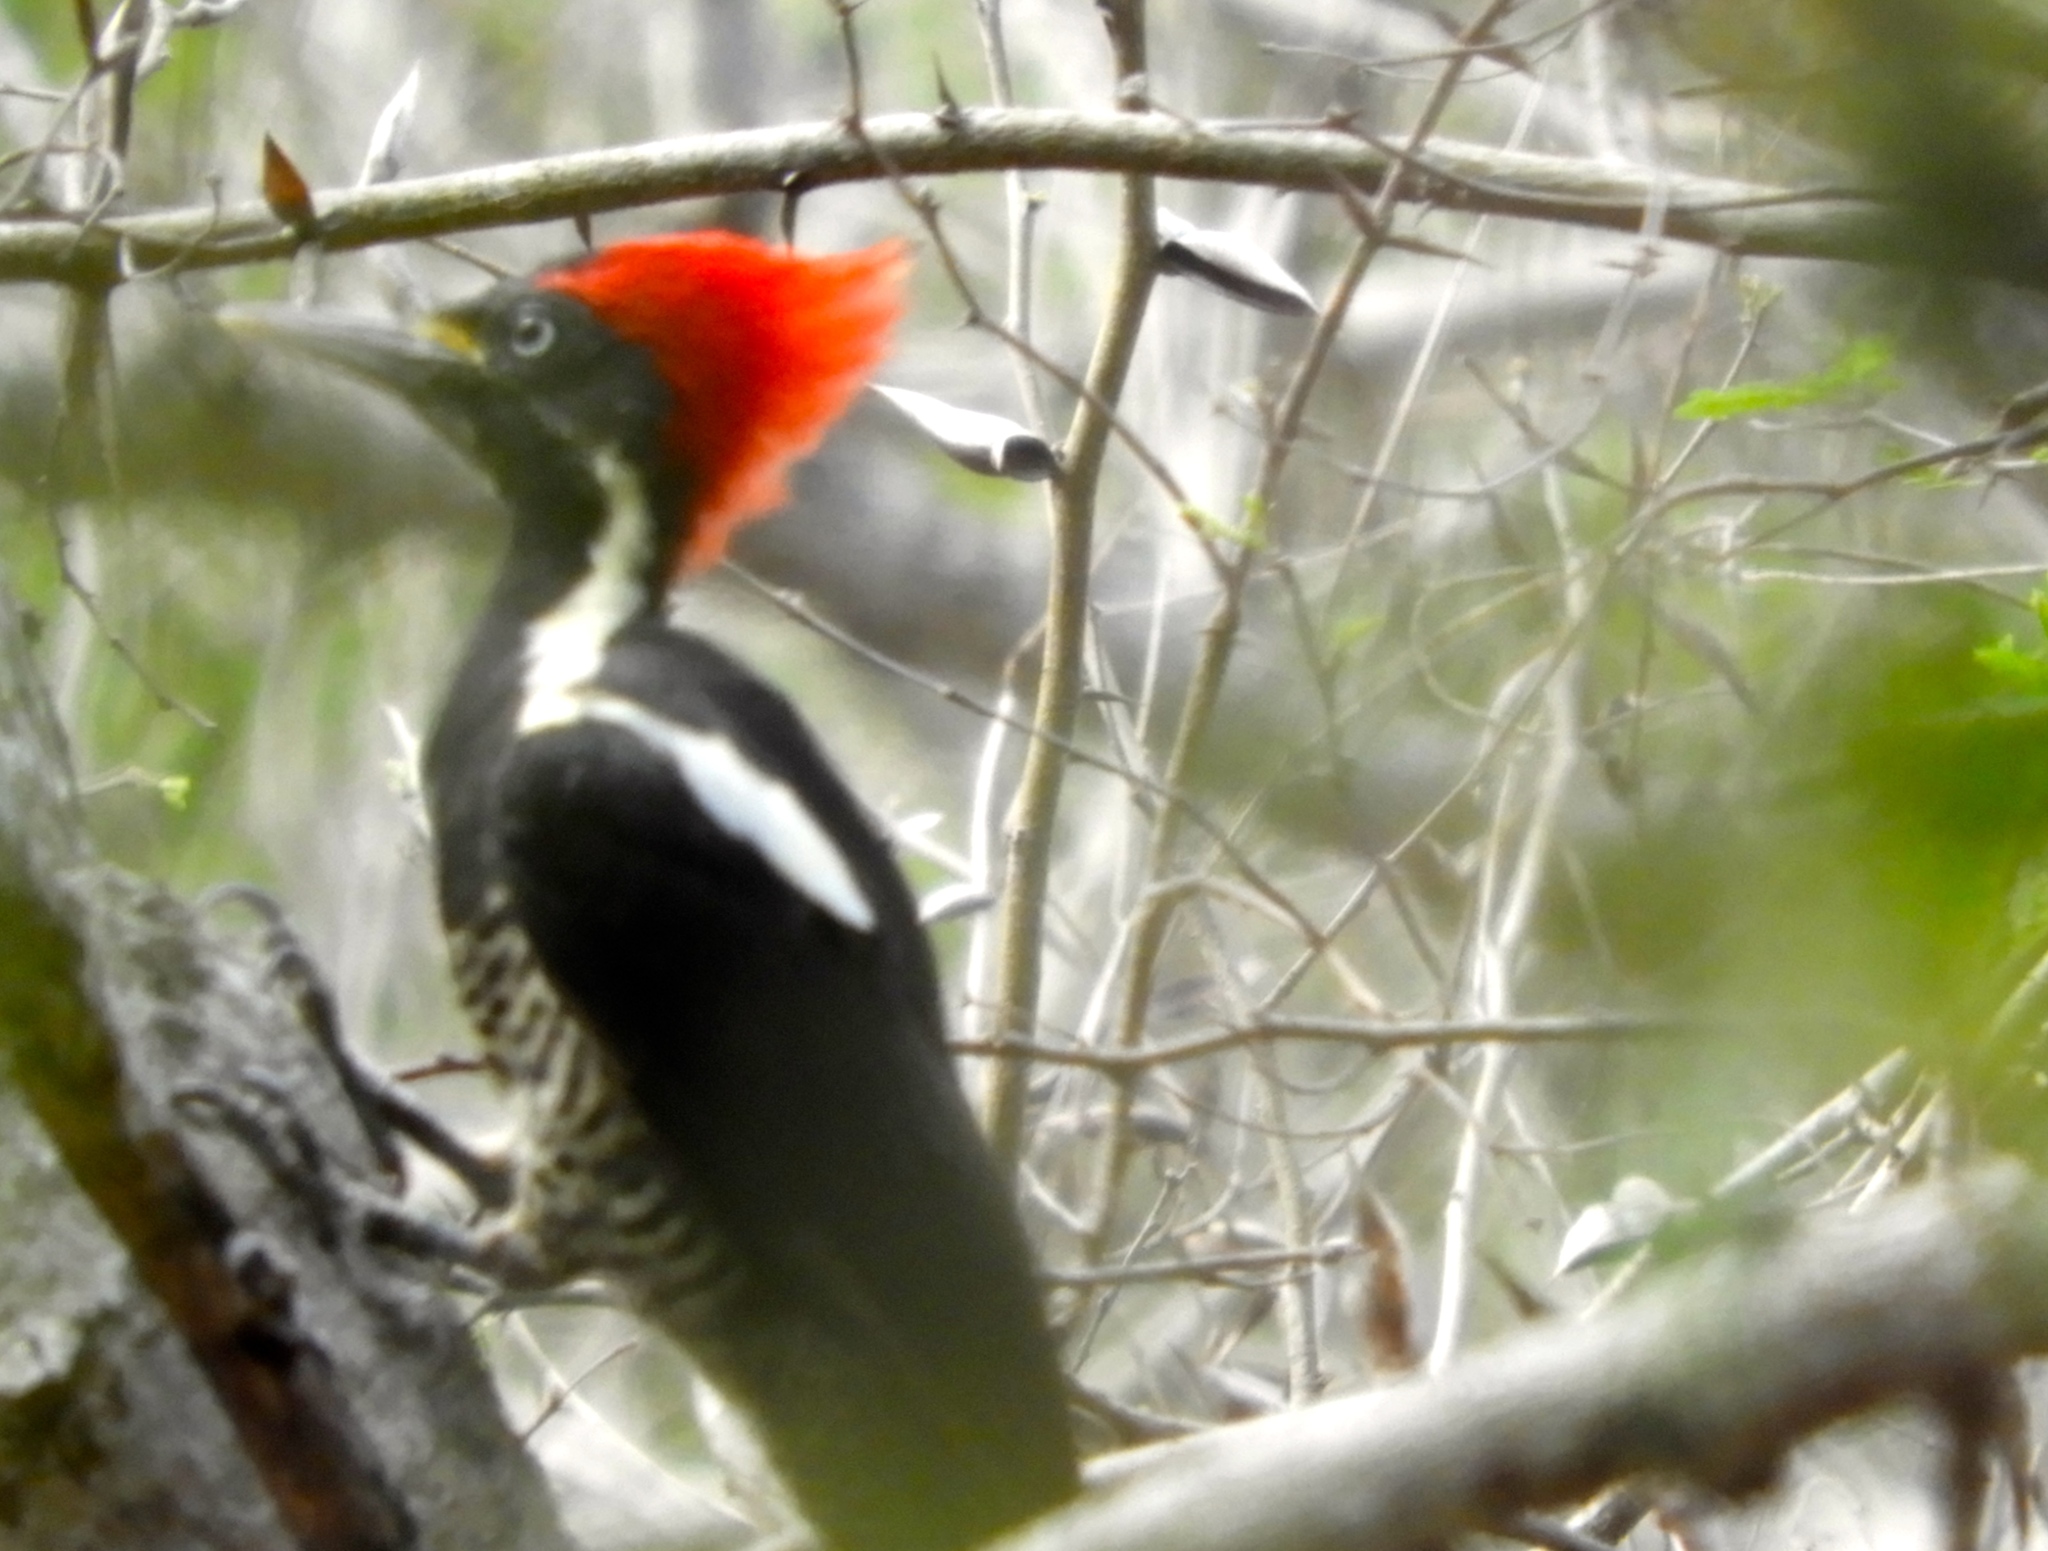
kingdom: Animalia
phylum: Chordata
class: Aves
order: Piciformes
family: Picidae
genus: Dryocopus
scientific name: Dryocopus lineatus
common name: Lineated woodpecker
